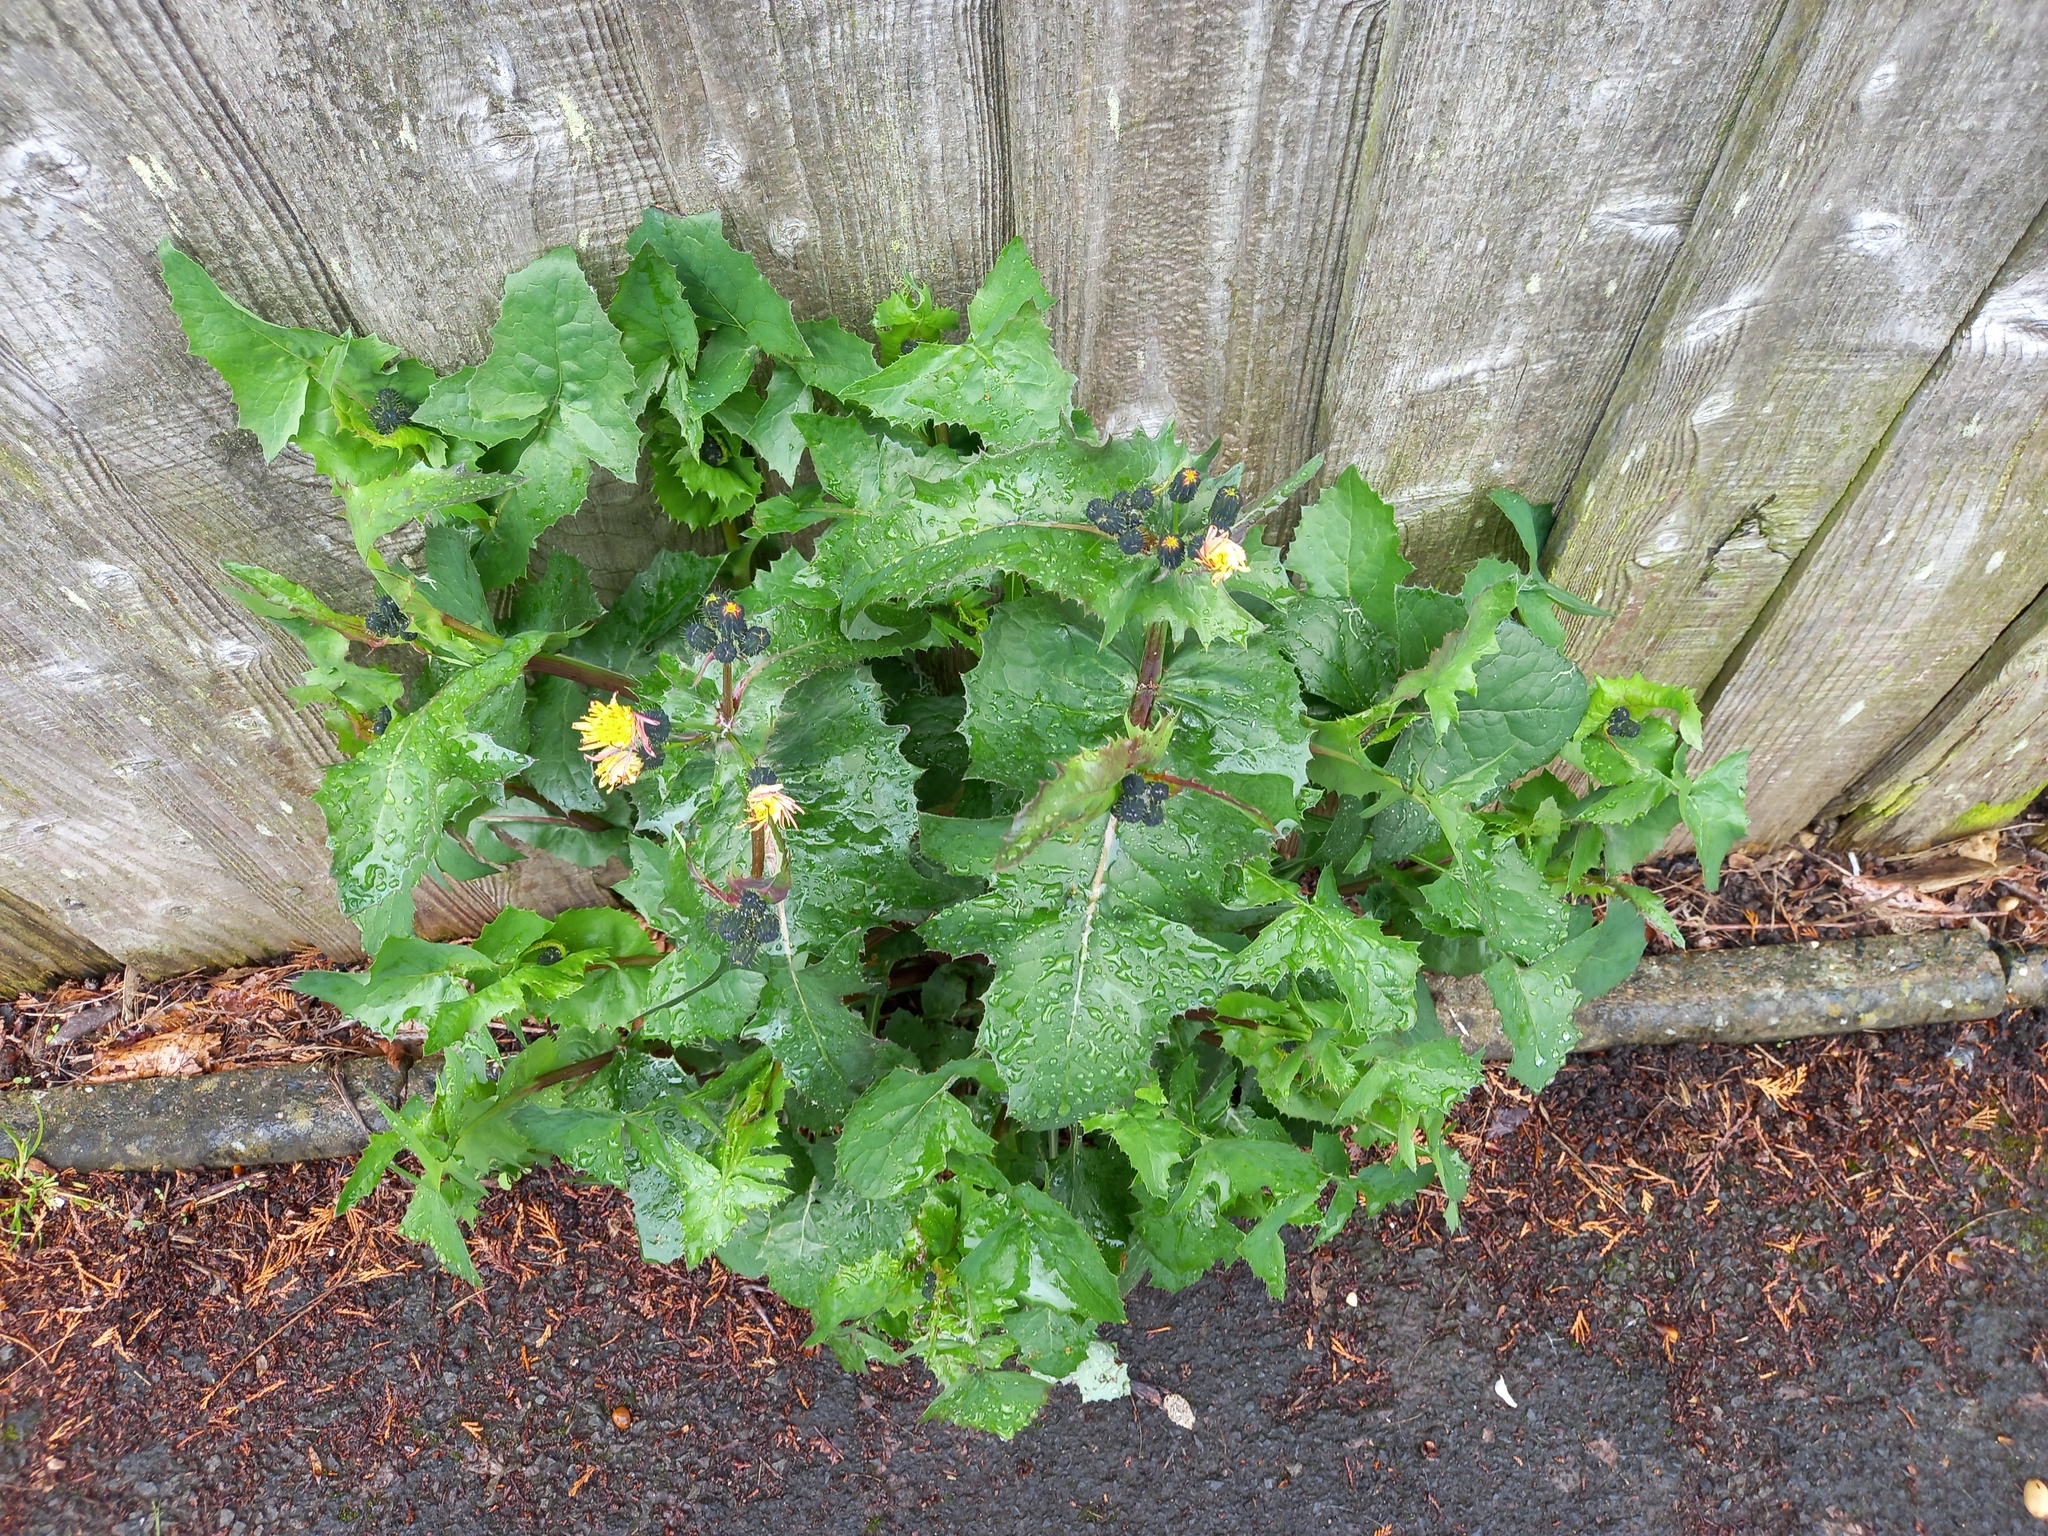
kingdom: Plantae
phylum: Tracheophyta
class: Magnoliopsida
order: Asterales
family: Asteraceae
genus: Sonchus
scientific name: Sonchus oleraceus
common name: Common sowthistle
